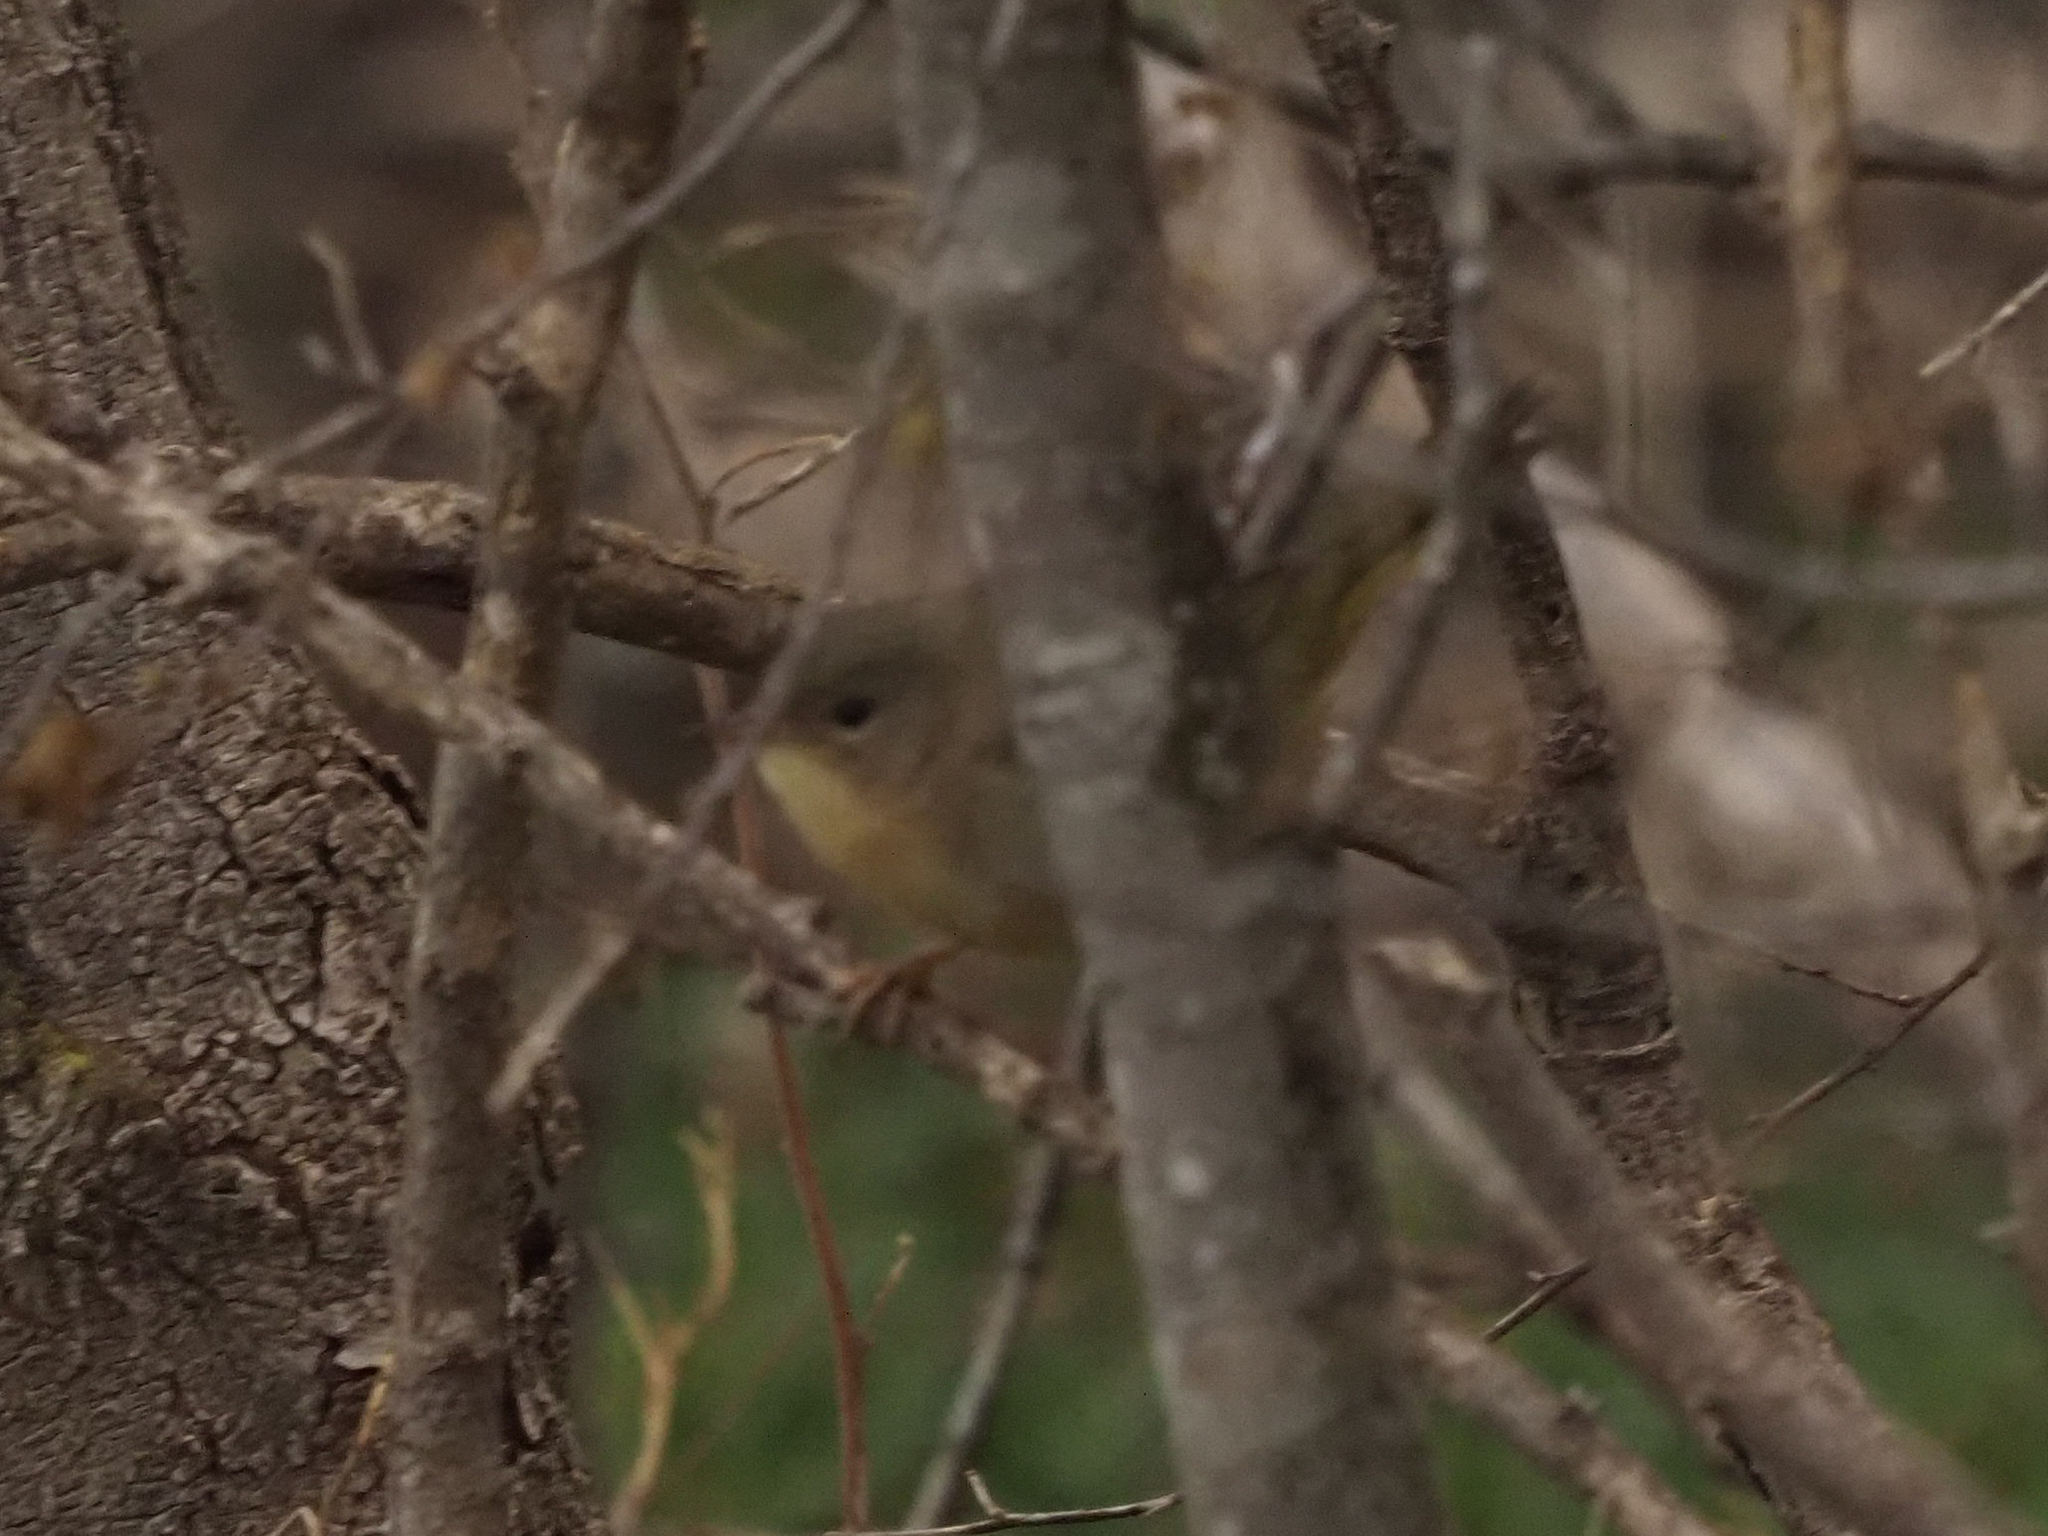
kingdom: Animalia
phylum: Chordata
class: Aves
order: Passeriformes
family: Parulidae
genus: Geothlypis
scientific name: Geothlypis trichas
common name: Common yellowthroat
